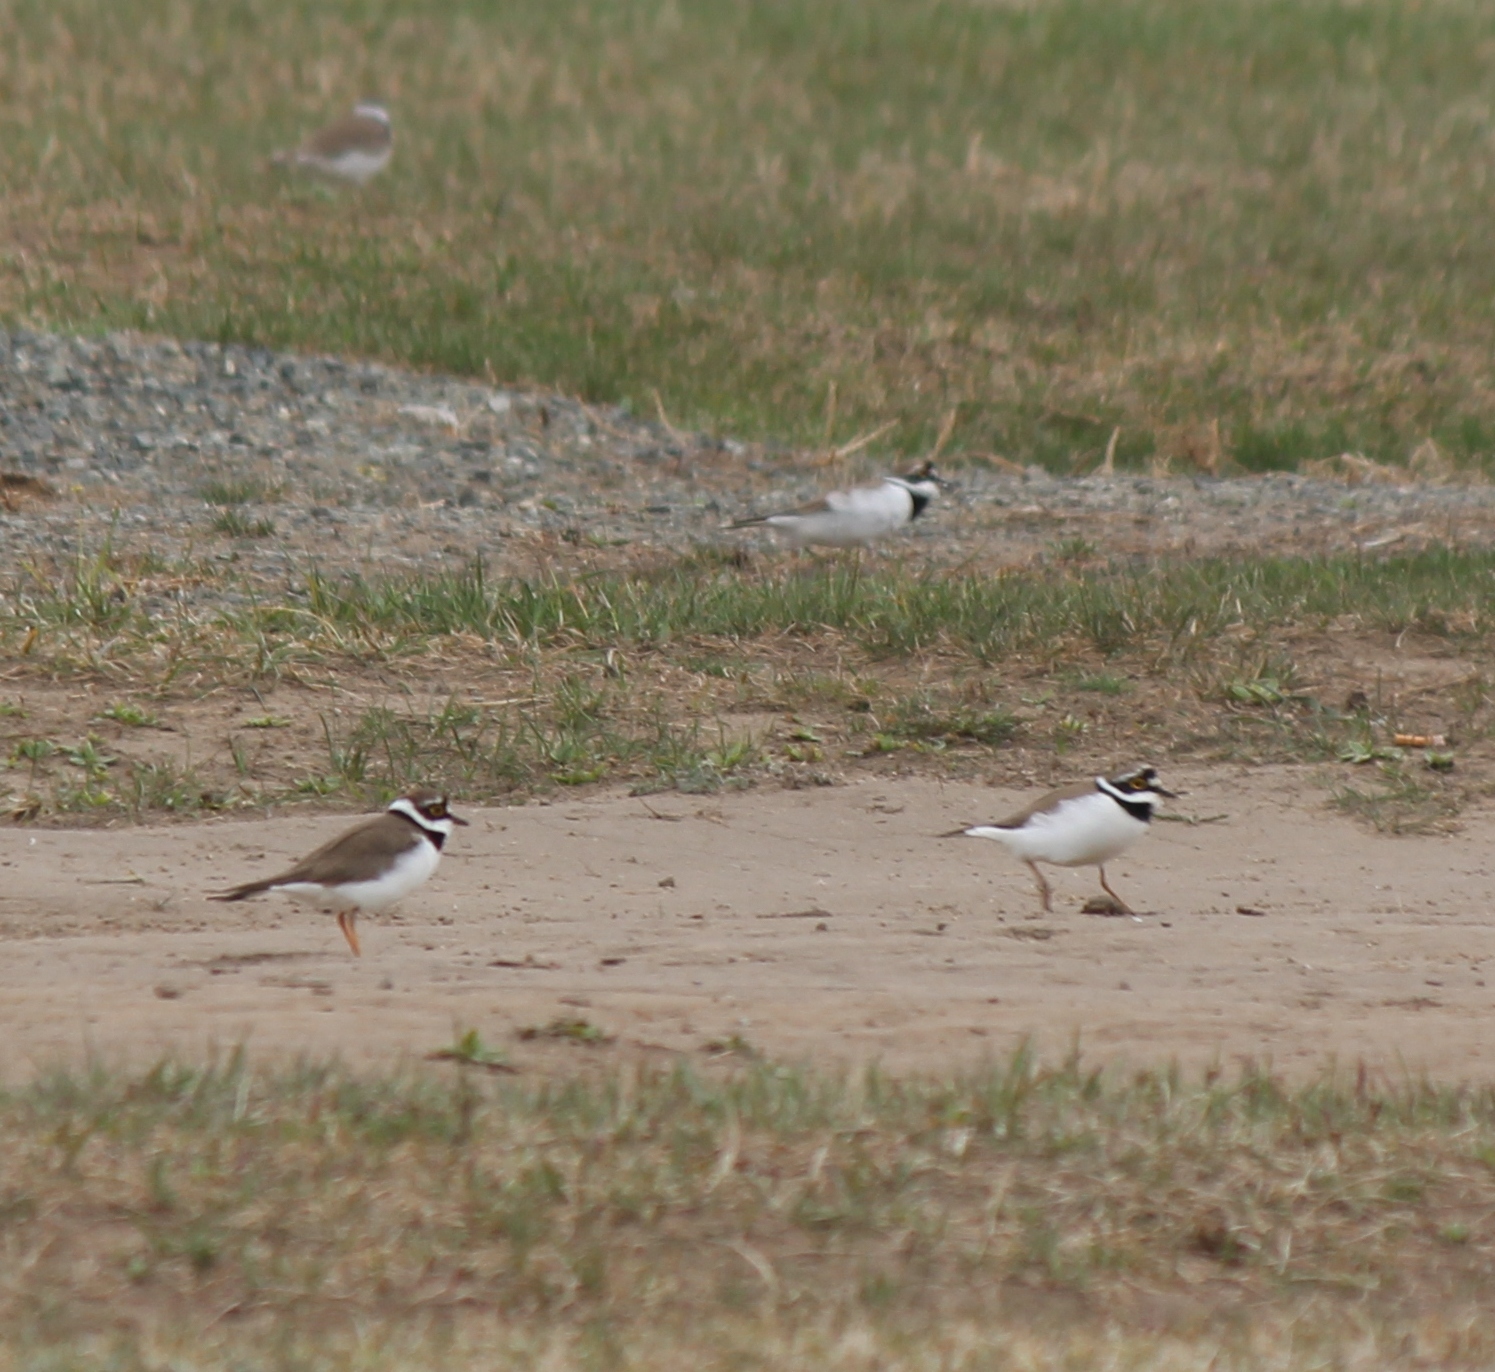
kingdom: Animalia
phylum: Chordata
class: Aves
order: Charadriiformes
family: Charadriidae
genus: Charadrius
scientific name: Charadrius dubius
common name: Little ringed plover
